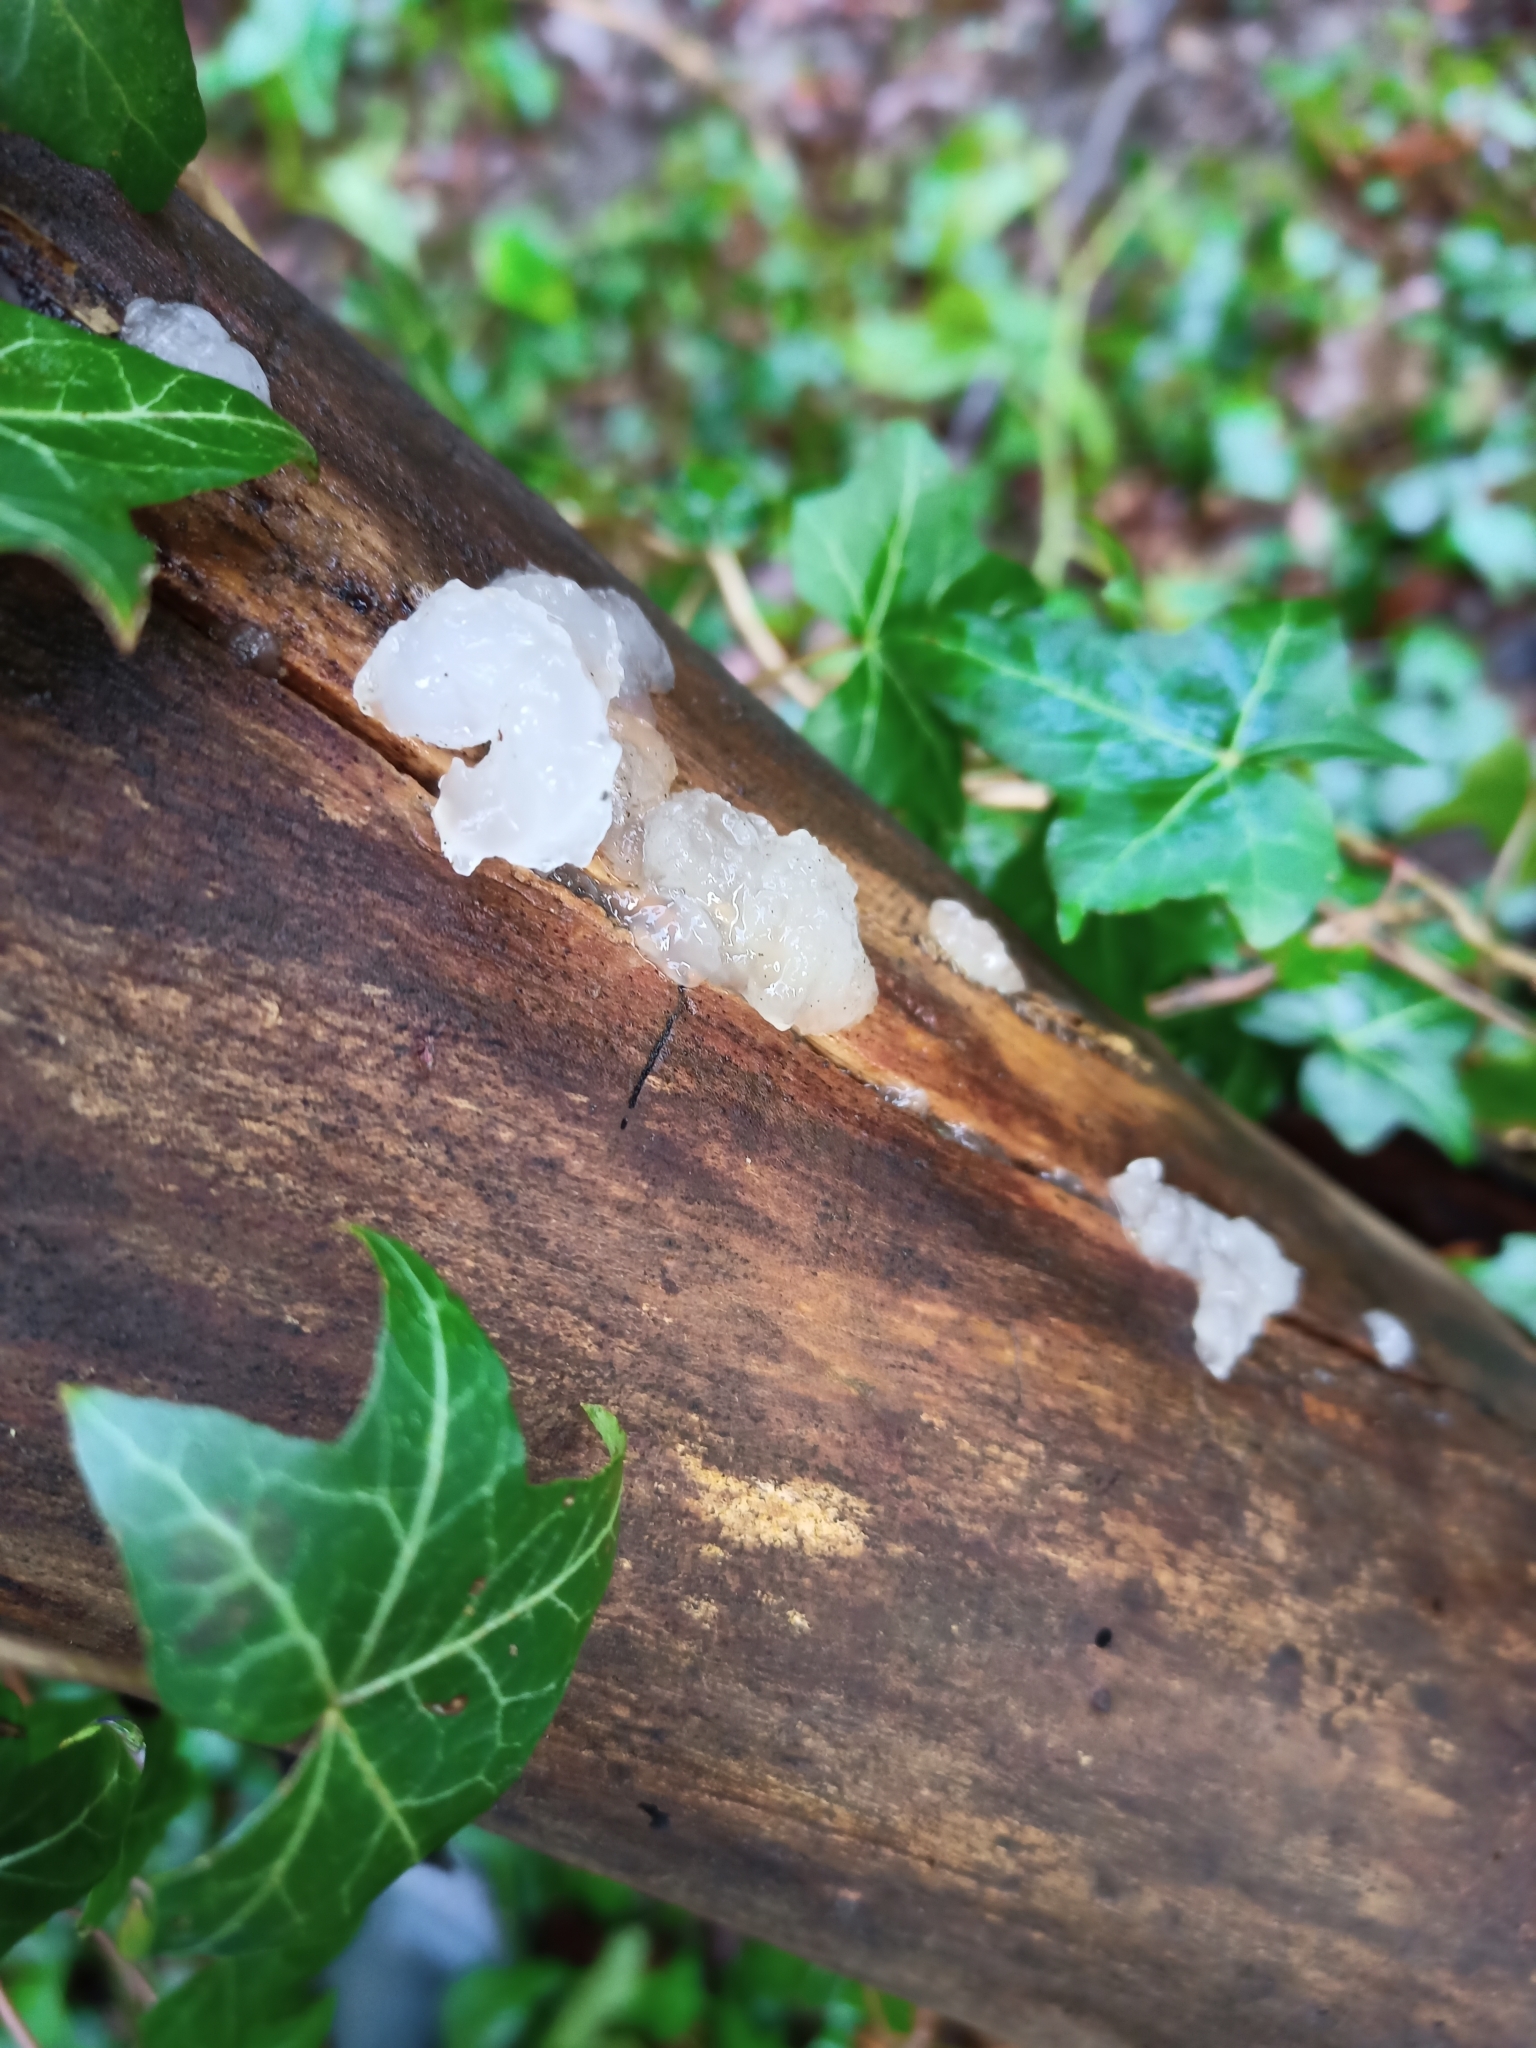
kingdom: Fungi
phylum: Basidiomycota
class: Agaricomycetes
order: Auriculariales
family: Hyaloriaceae
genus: Myxarium
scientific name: Myxarium nucleatum
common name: Crystal brain fungus
